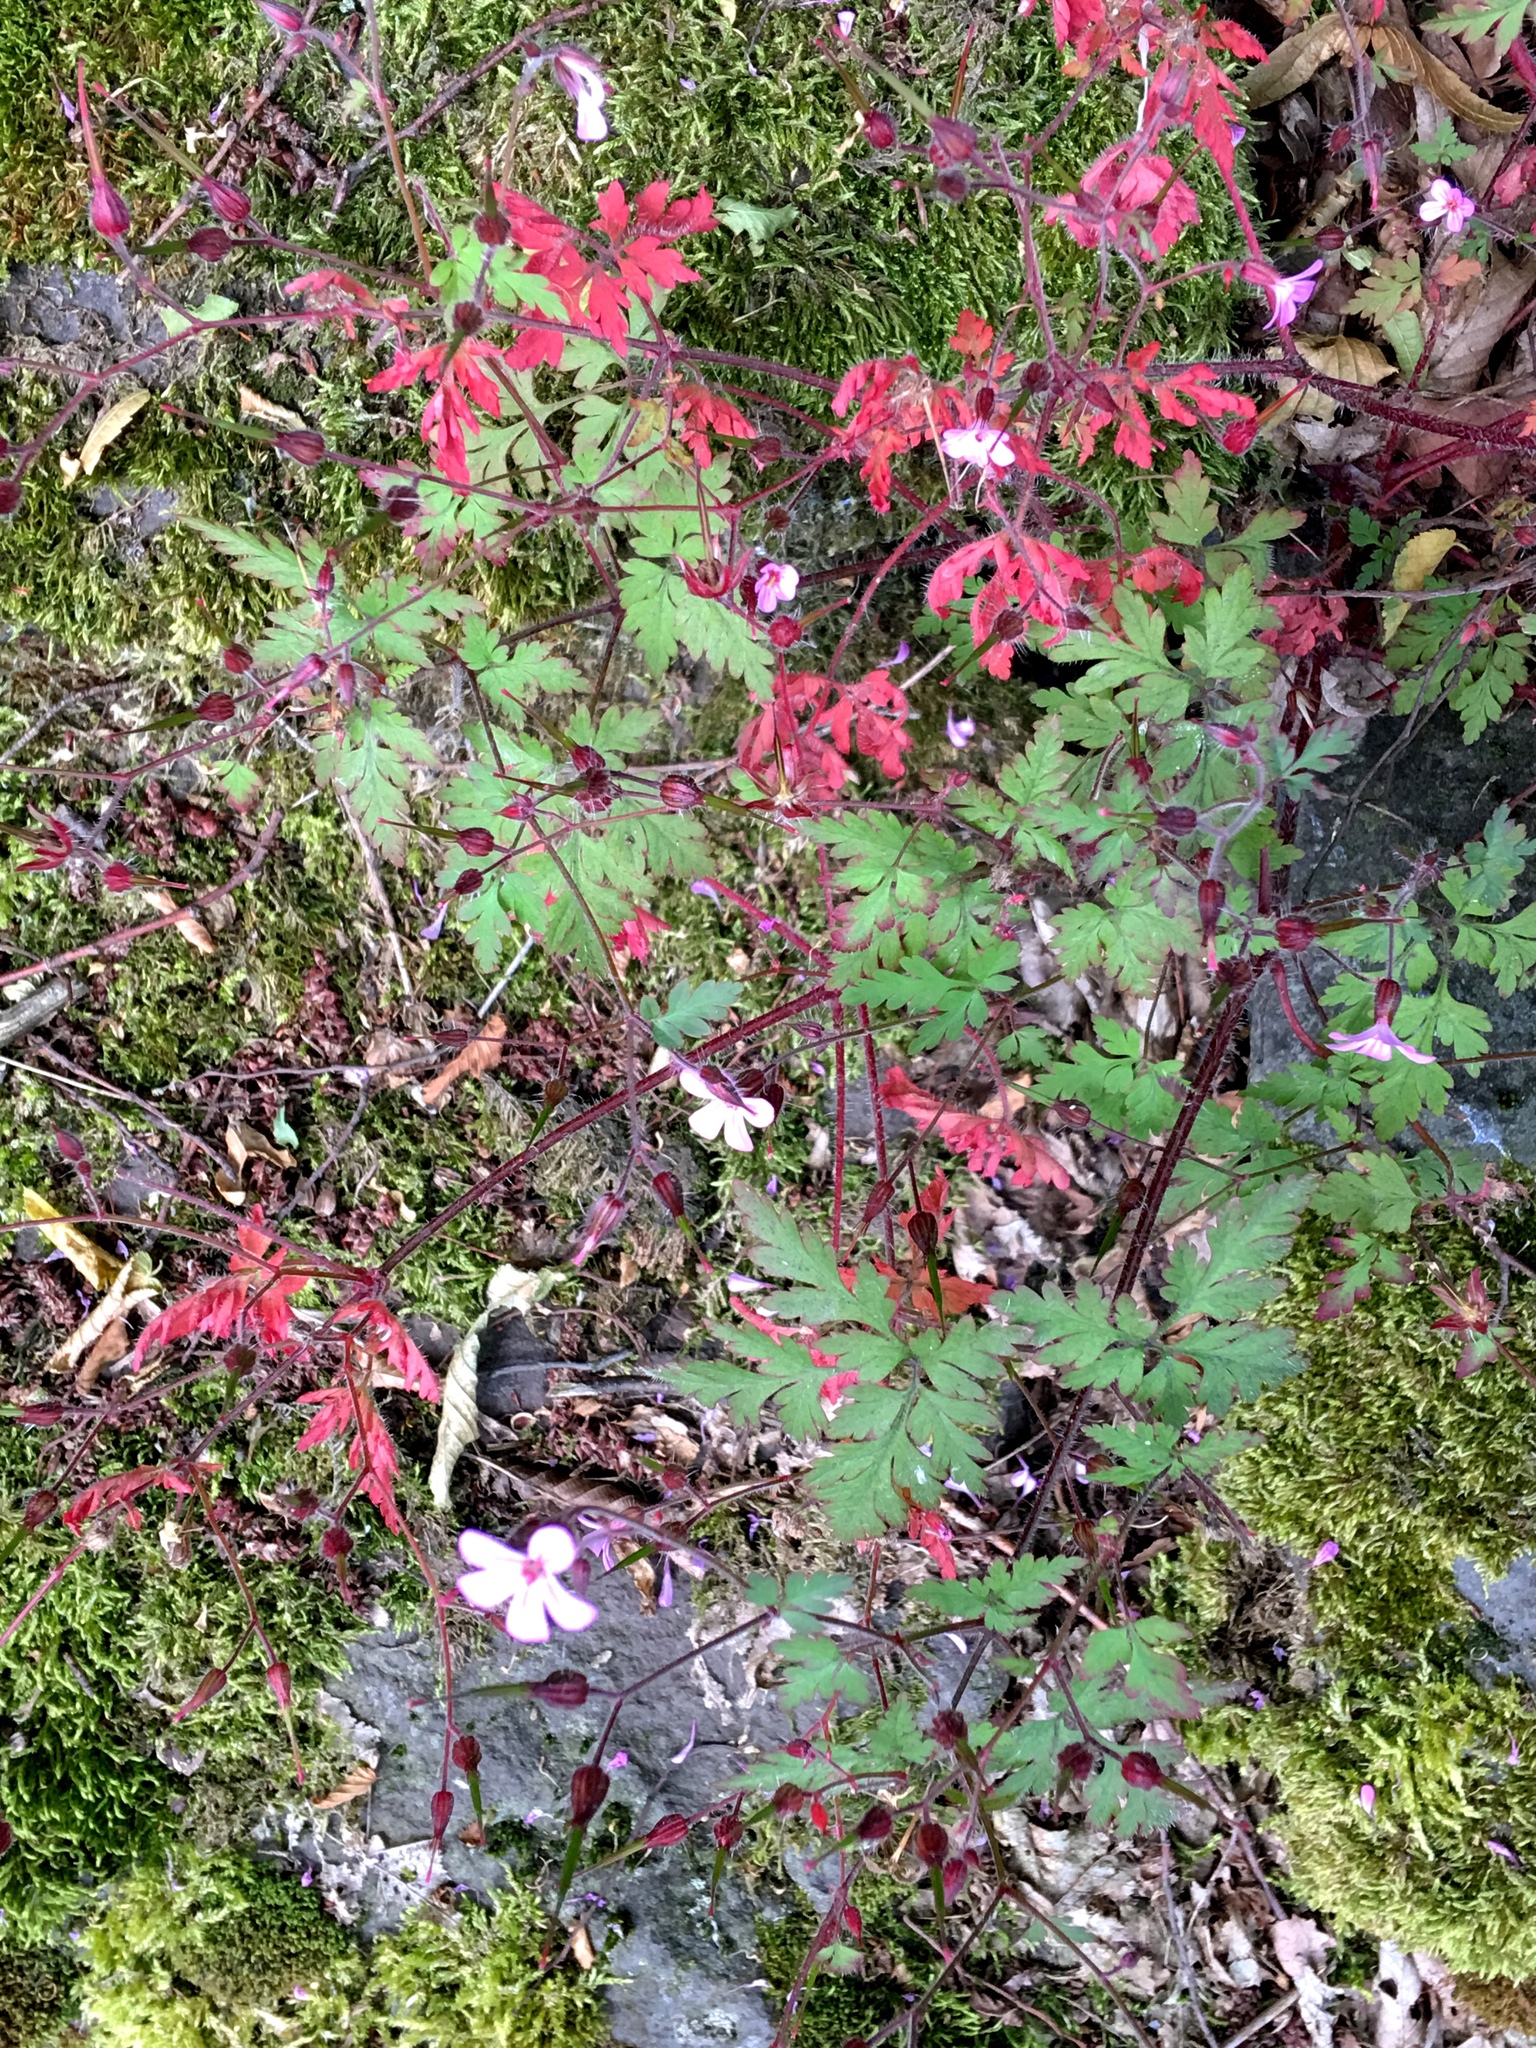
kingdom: Plantae
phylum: Tracheophyta
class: Magnoliopsida
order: Geraniales
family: Geraniaceae
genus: Geranium
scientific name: Geranium robertianum
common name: Herb-robert
